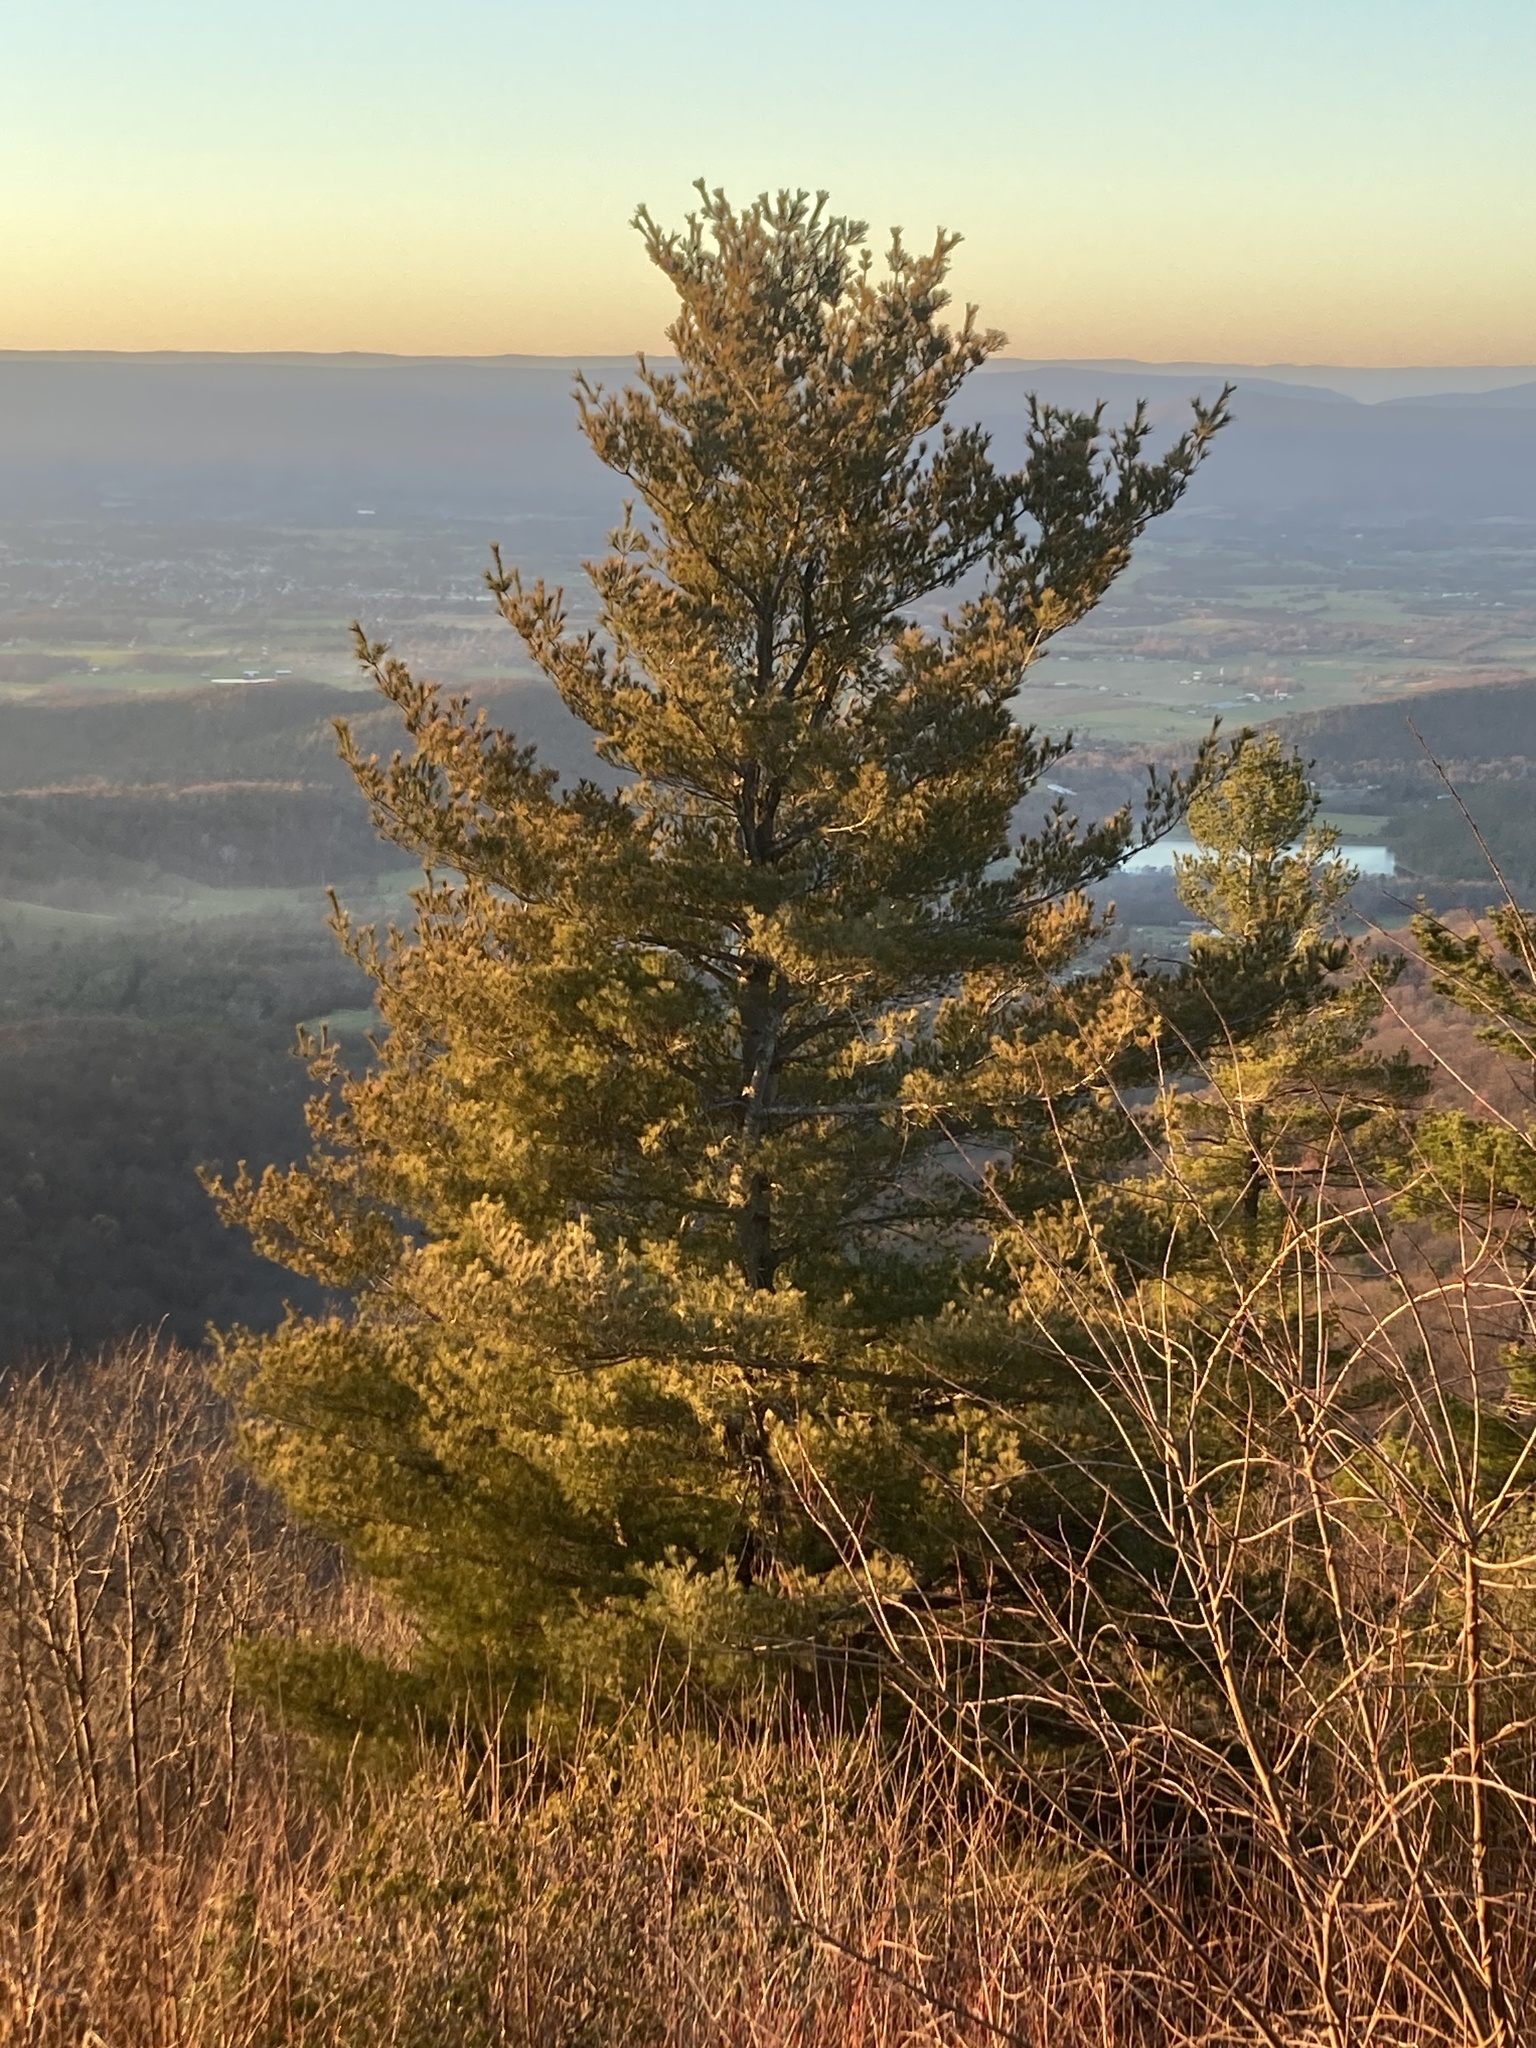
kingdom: Plantae
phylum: Tracheophyta
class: Pinopsida
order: Pinales
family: Pinaceae
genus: Pinus
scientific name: Pinus strobus
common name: Weymouth pine
